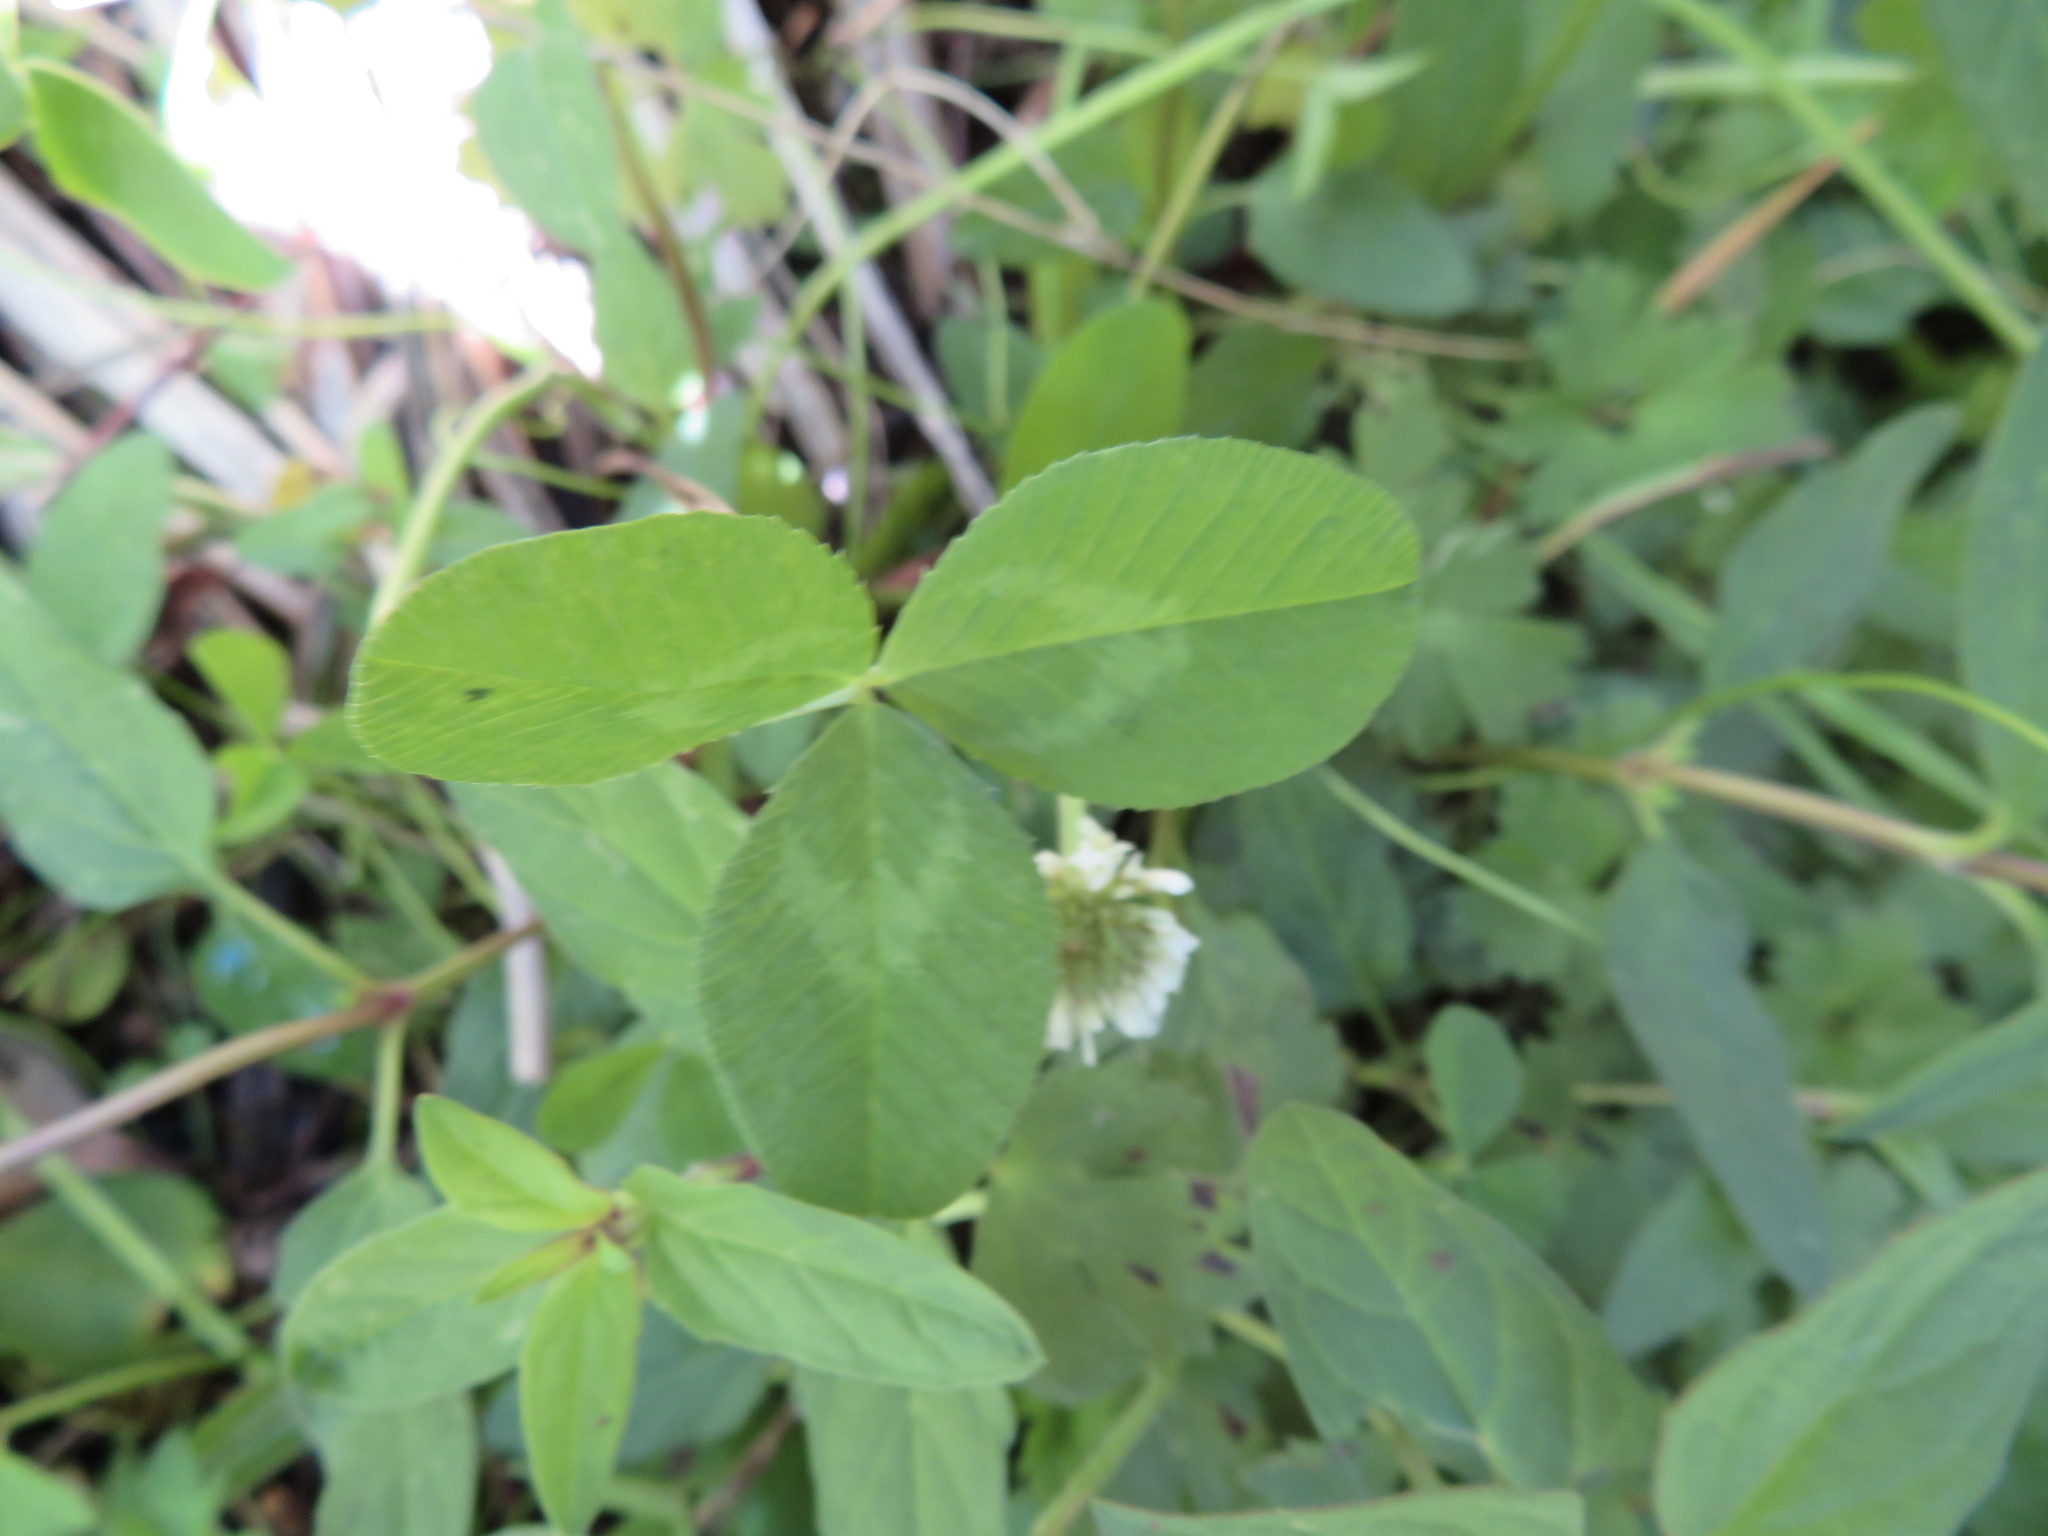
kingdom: Plantae
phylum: Tracheophyta
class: Magnoliopsida
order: Fabales
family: Fabaceae
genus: Trifolium
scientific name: Trifolium repens
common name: White clover
